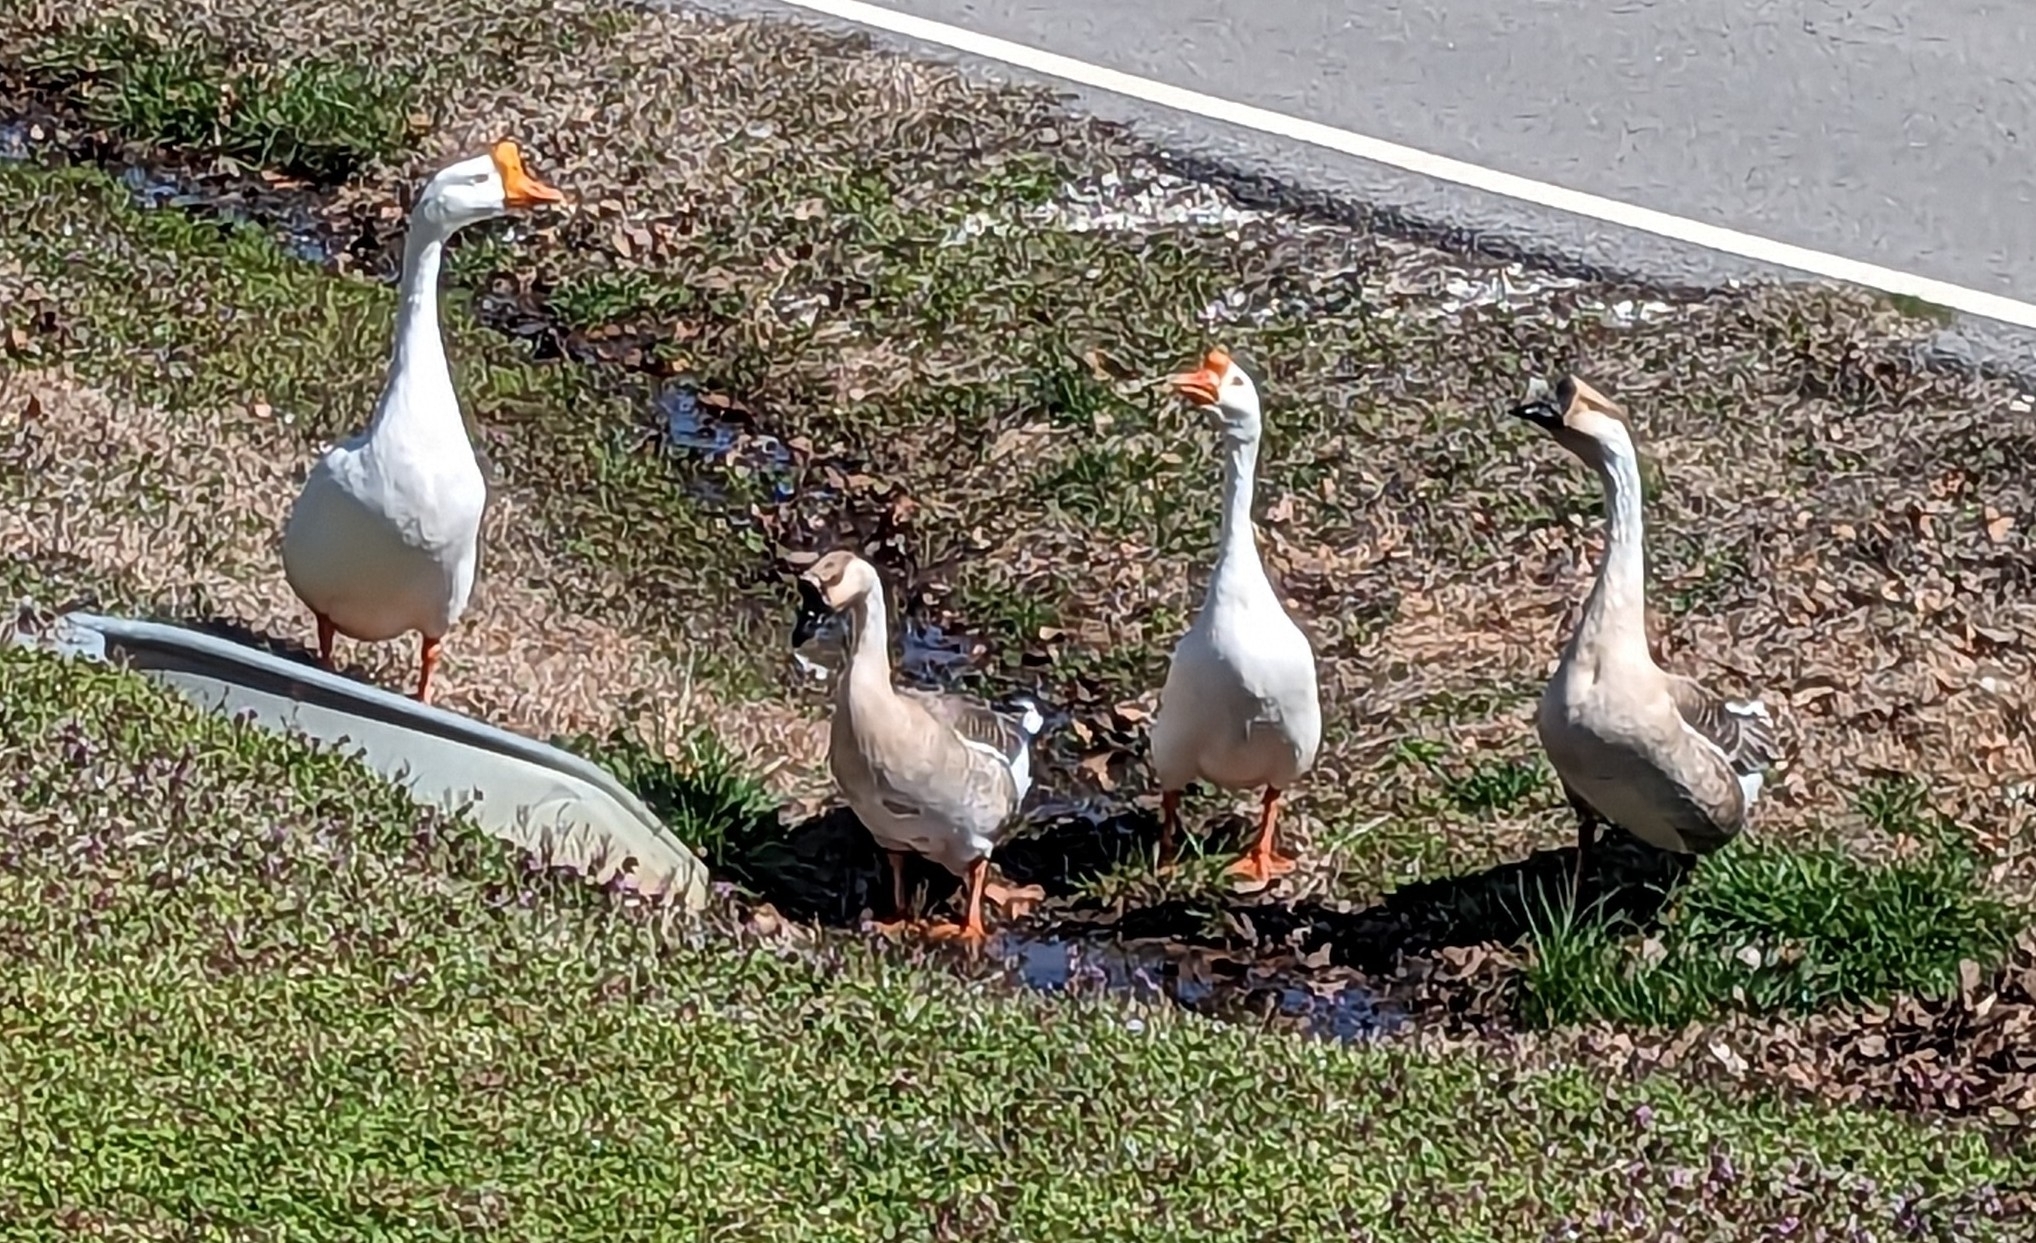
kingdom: Animalia
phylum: Chordata
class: Aves
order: Anseriformes
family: Anatidae
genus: Anser
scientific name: Anser cygnoides
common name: Swan goose
